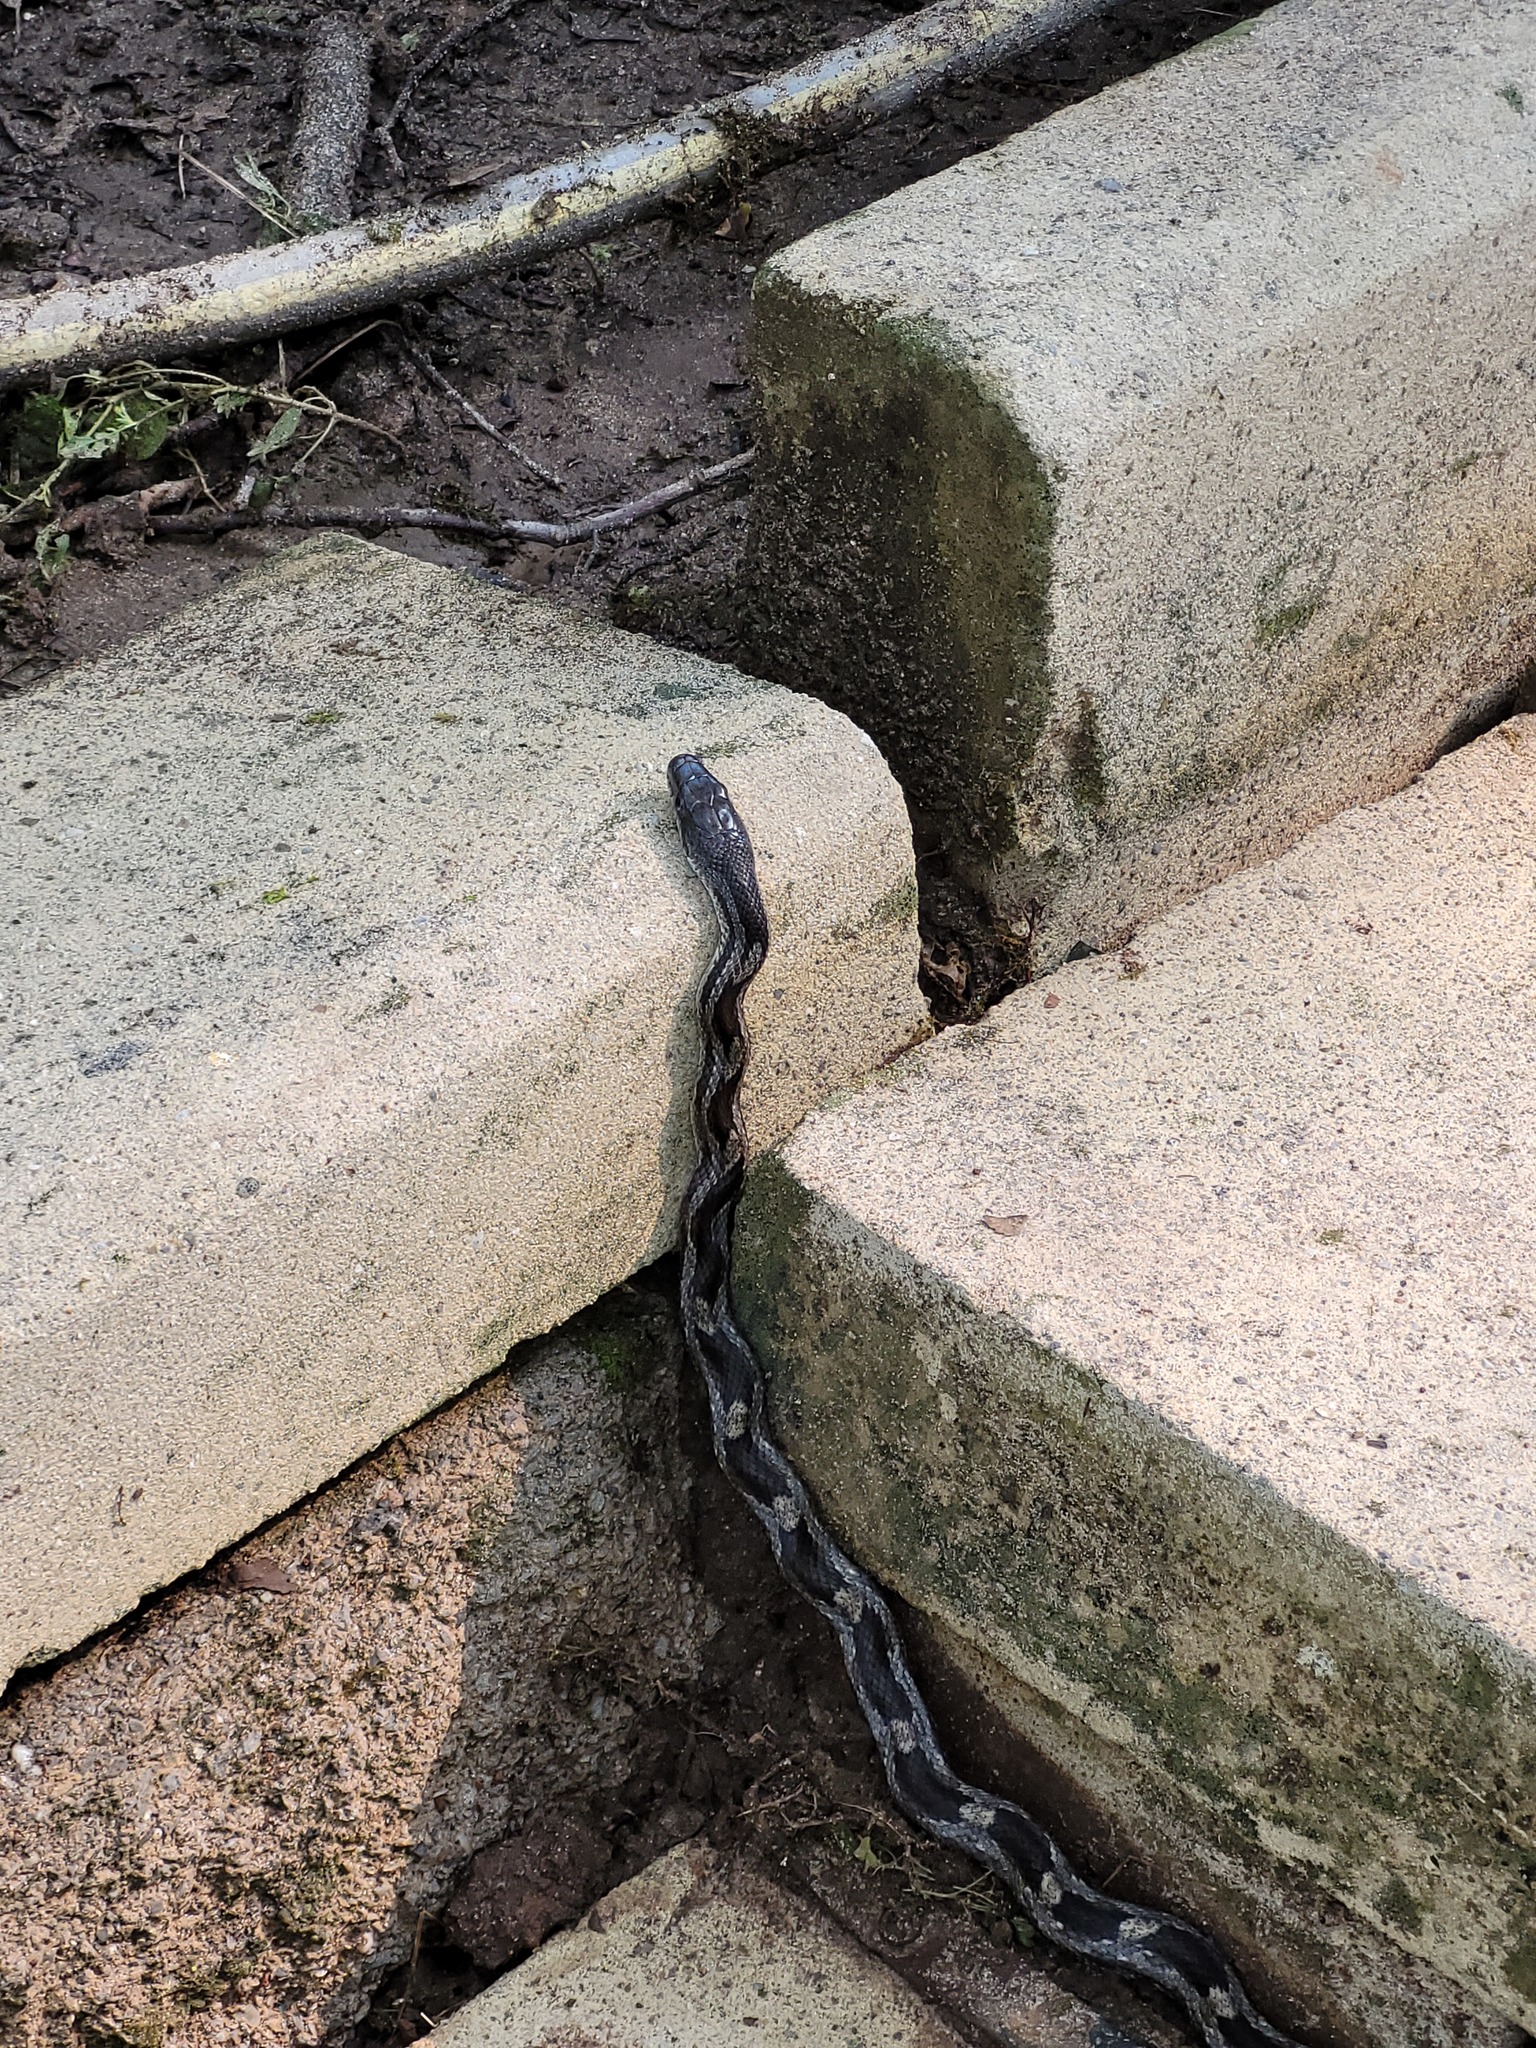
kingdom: Animalia
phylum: Chordata
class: Squamata
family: Colubridae
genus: Pantherophis
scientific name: Pantherophis spiloides
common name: Gray rat snake
